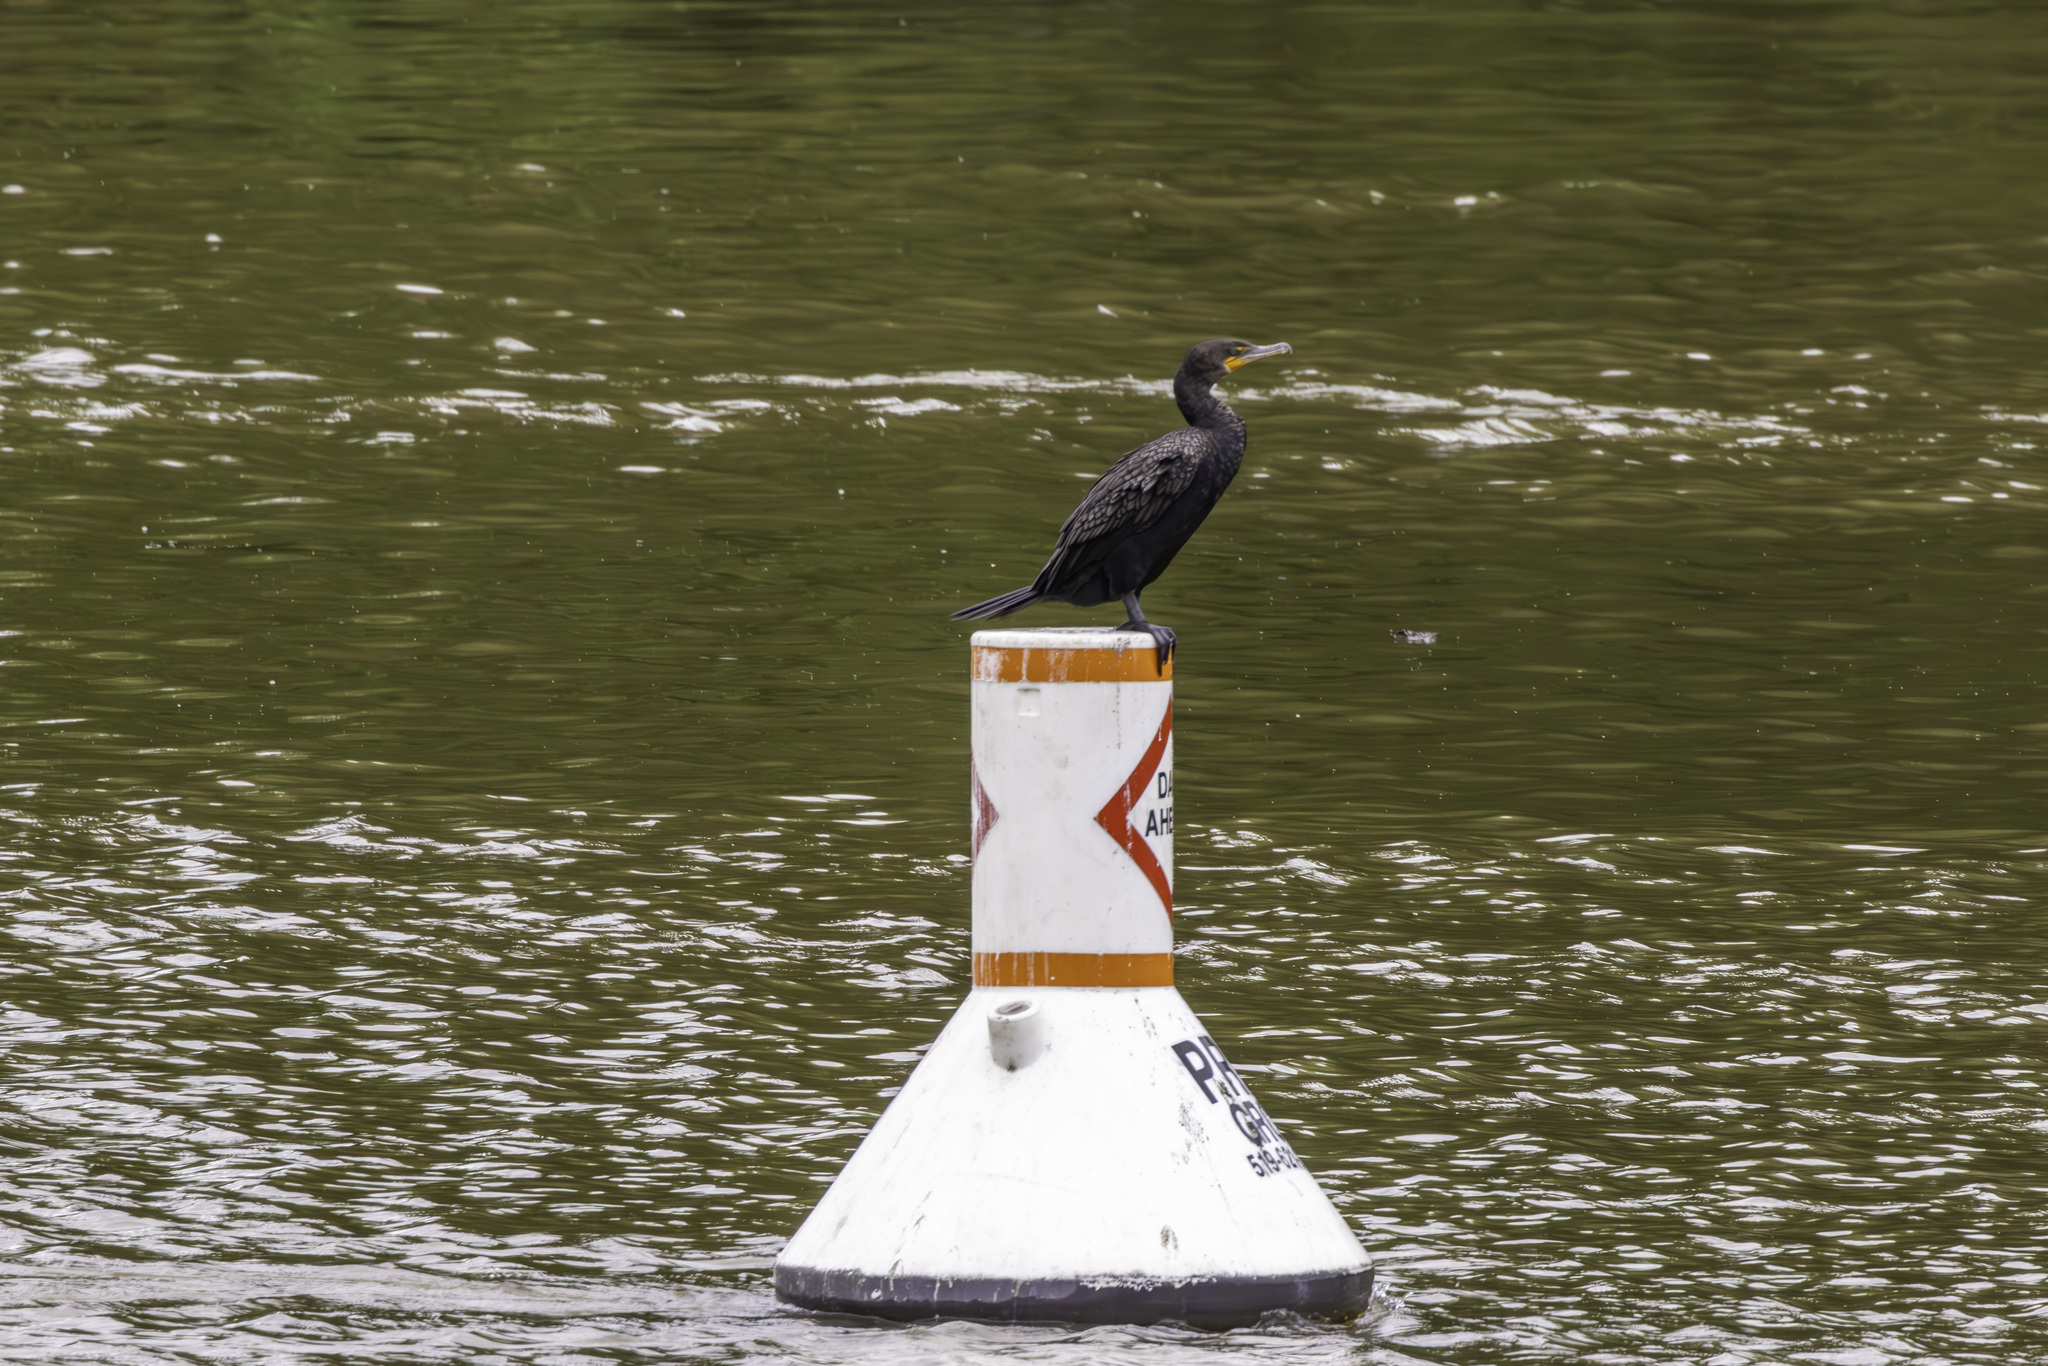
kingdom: Animalia
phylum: Chordata
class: Aves
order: Suliformes
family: Phalacrocoracidae
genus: Phalacrocorax
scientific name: Phalacrocorax auritus
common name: Double-crested cormorant
